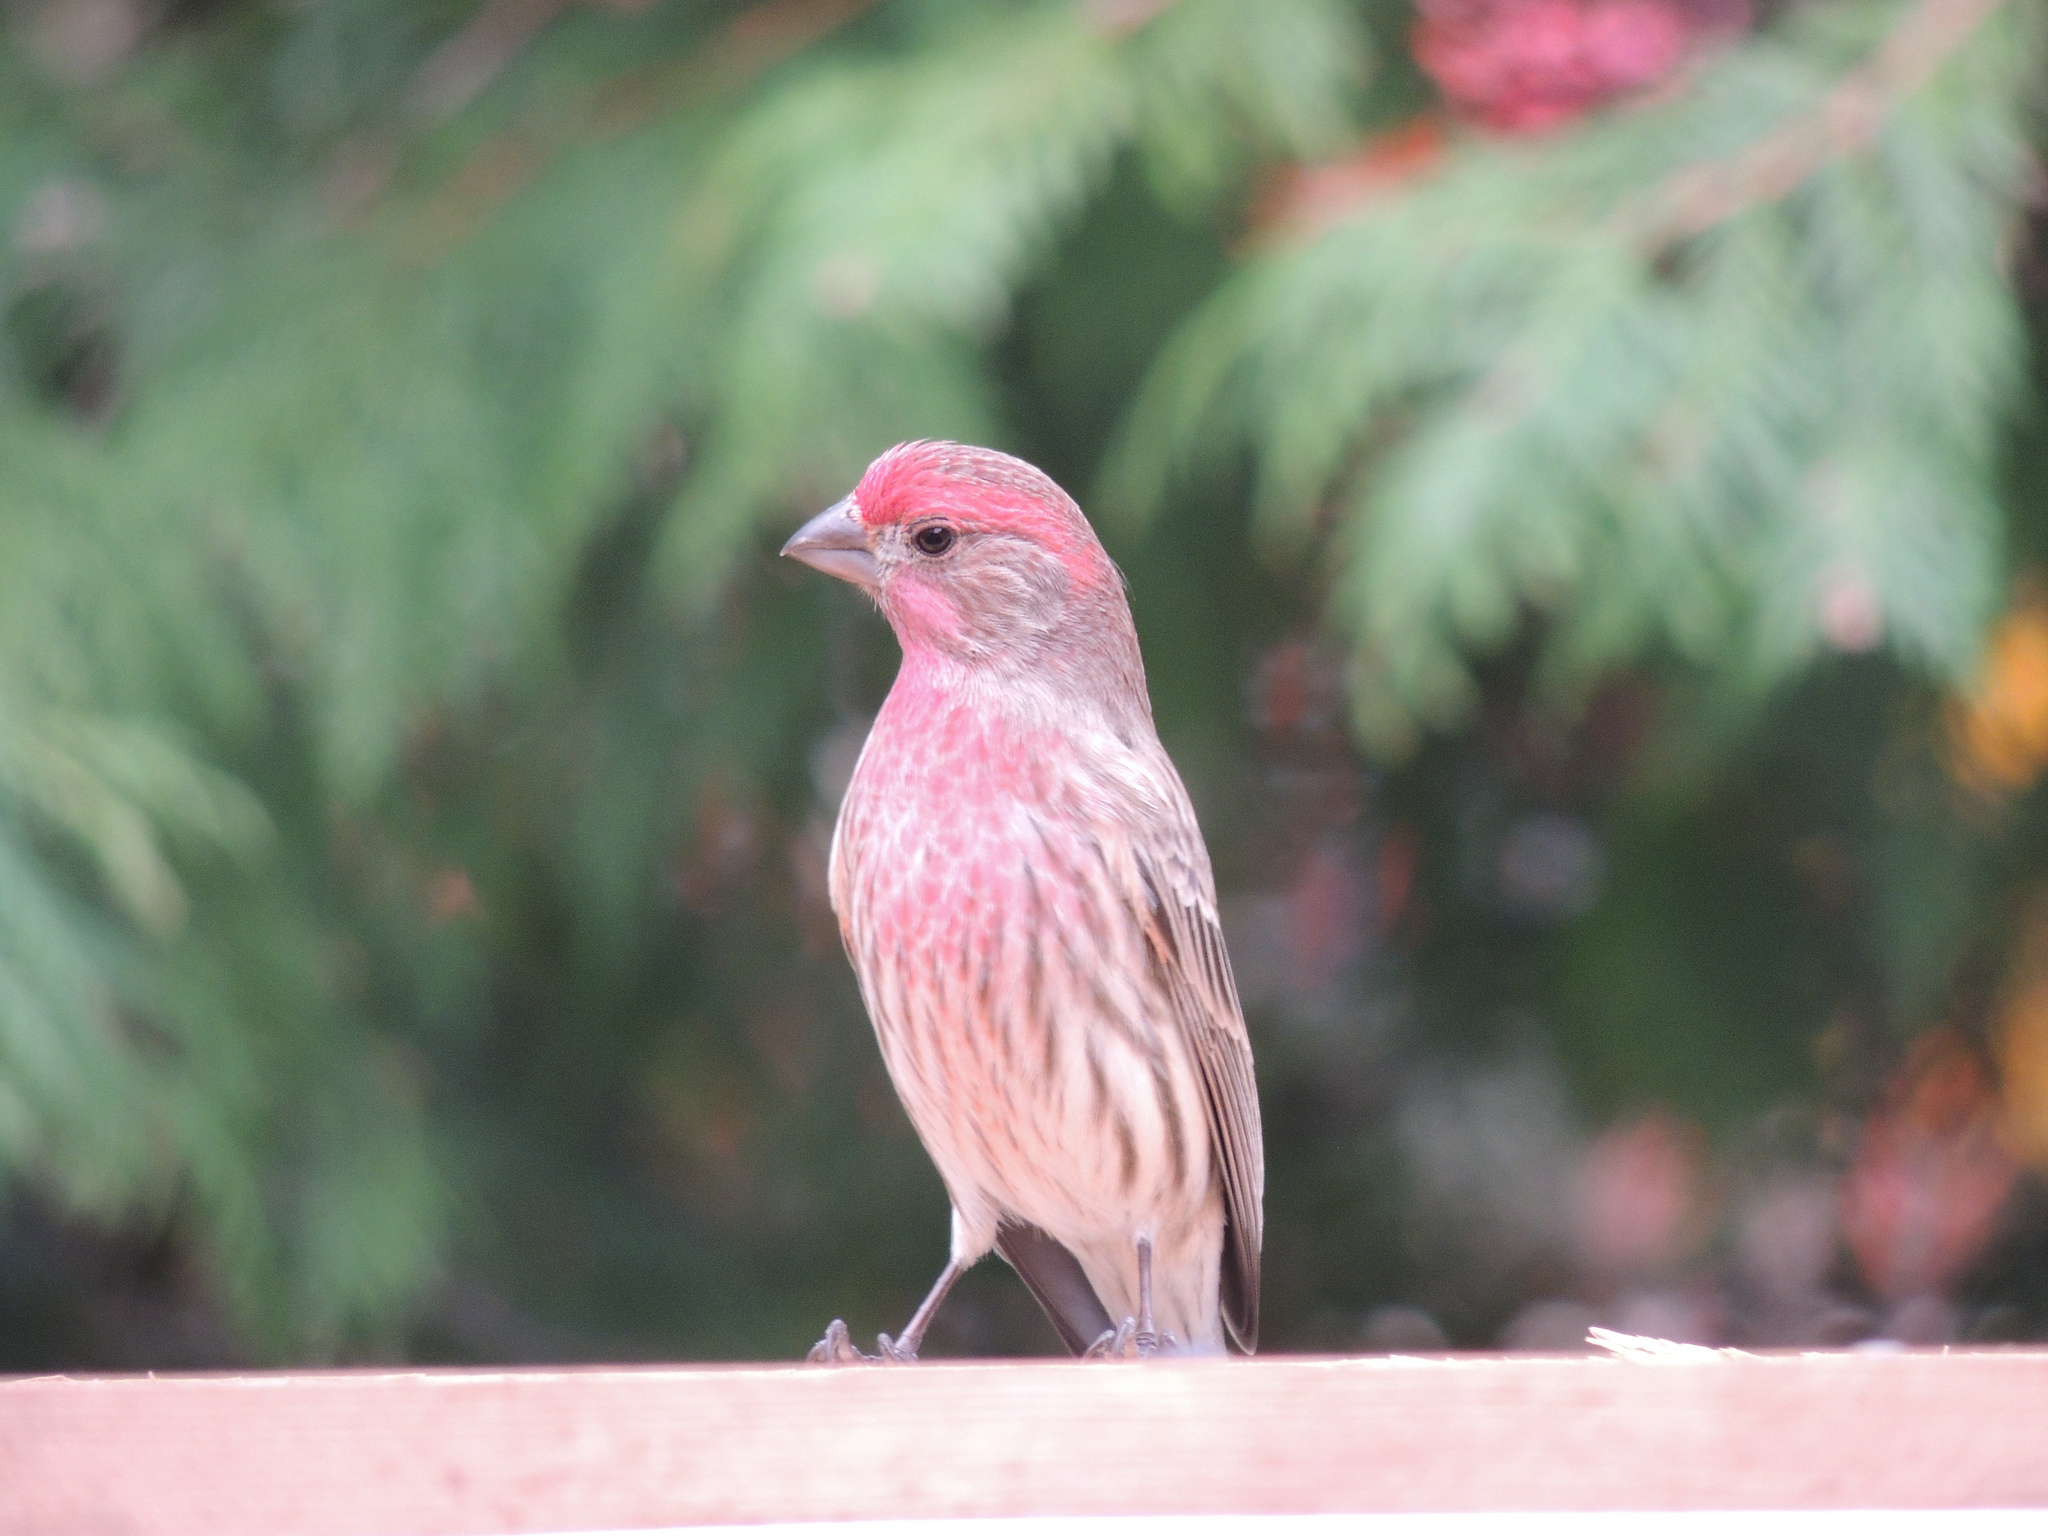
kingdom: Animalia
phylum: Chordata
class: Aves
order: Passeriformes
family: Fringillidae
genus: Haemorhous
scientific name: Haemorhous mexicanus
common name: House finch
